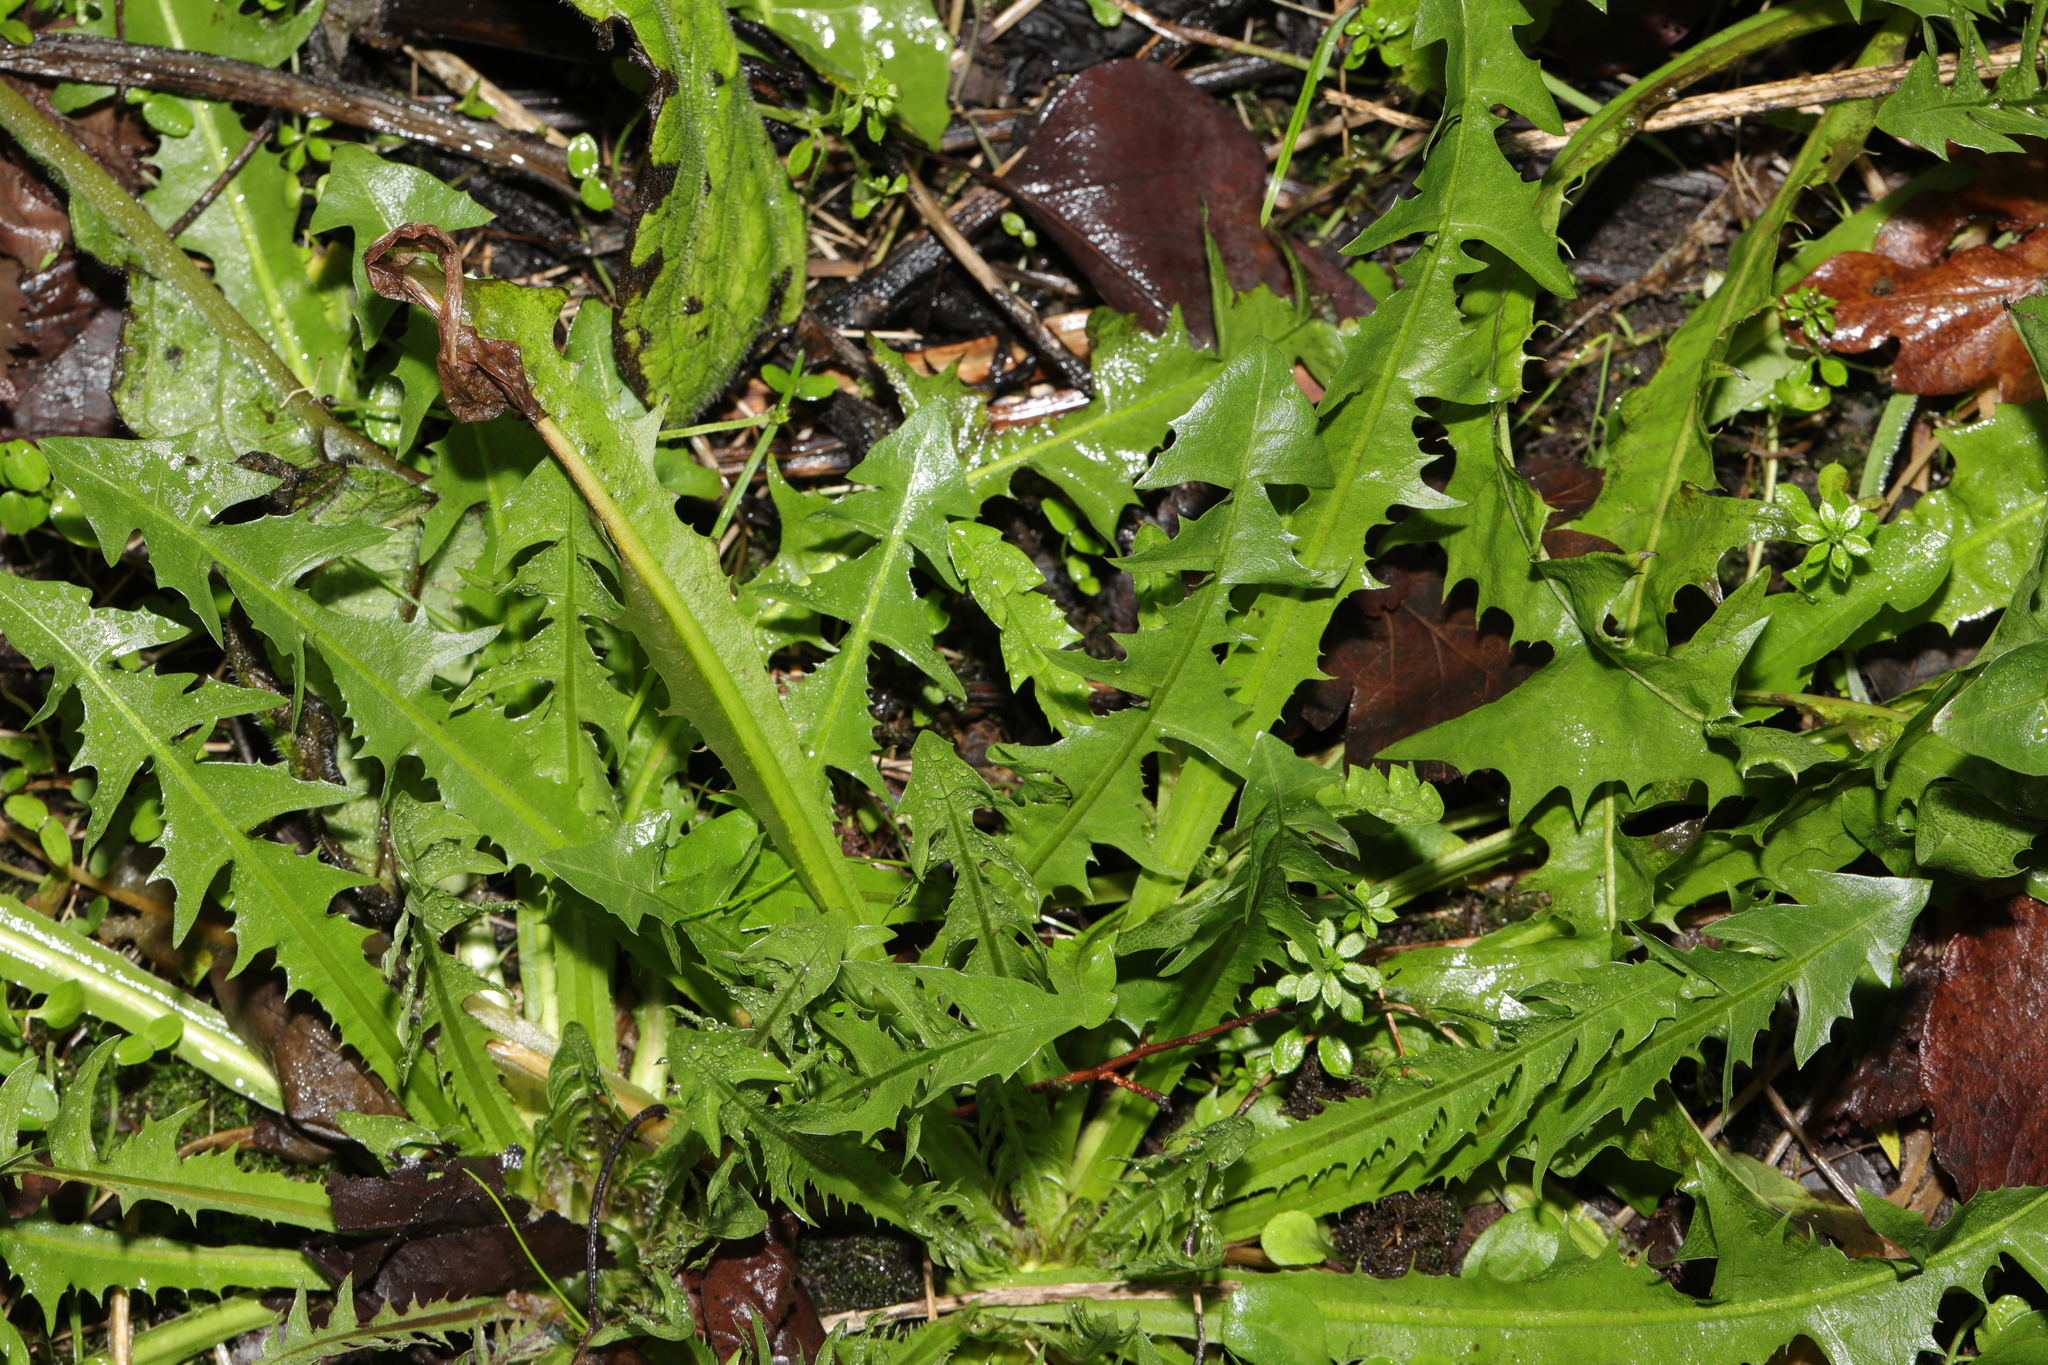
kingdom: Plantae
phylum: Tracheophyta
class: Magnoliopsida
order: Asterales
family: Asteraceae
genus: Taraxacum
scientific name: Taraxacum officinale
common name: Common dandelion
